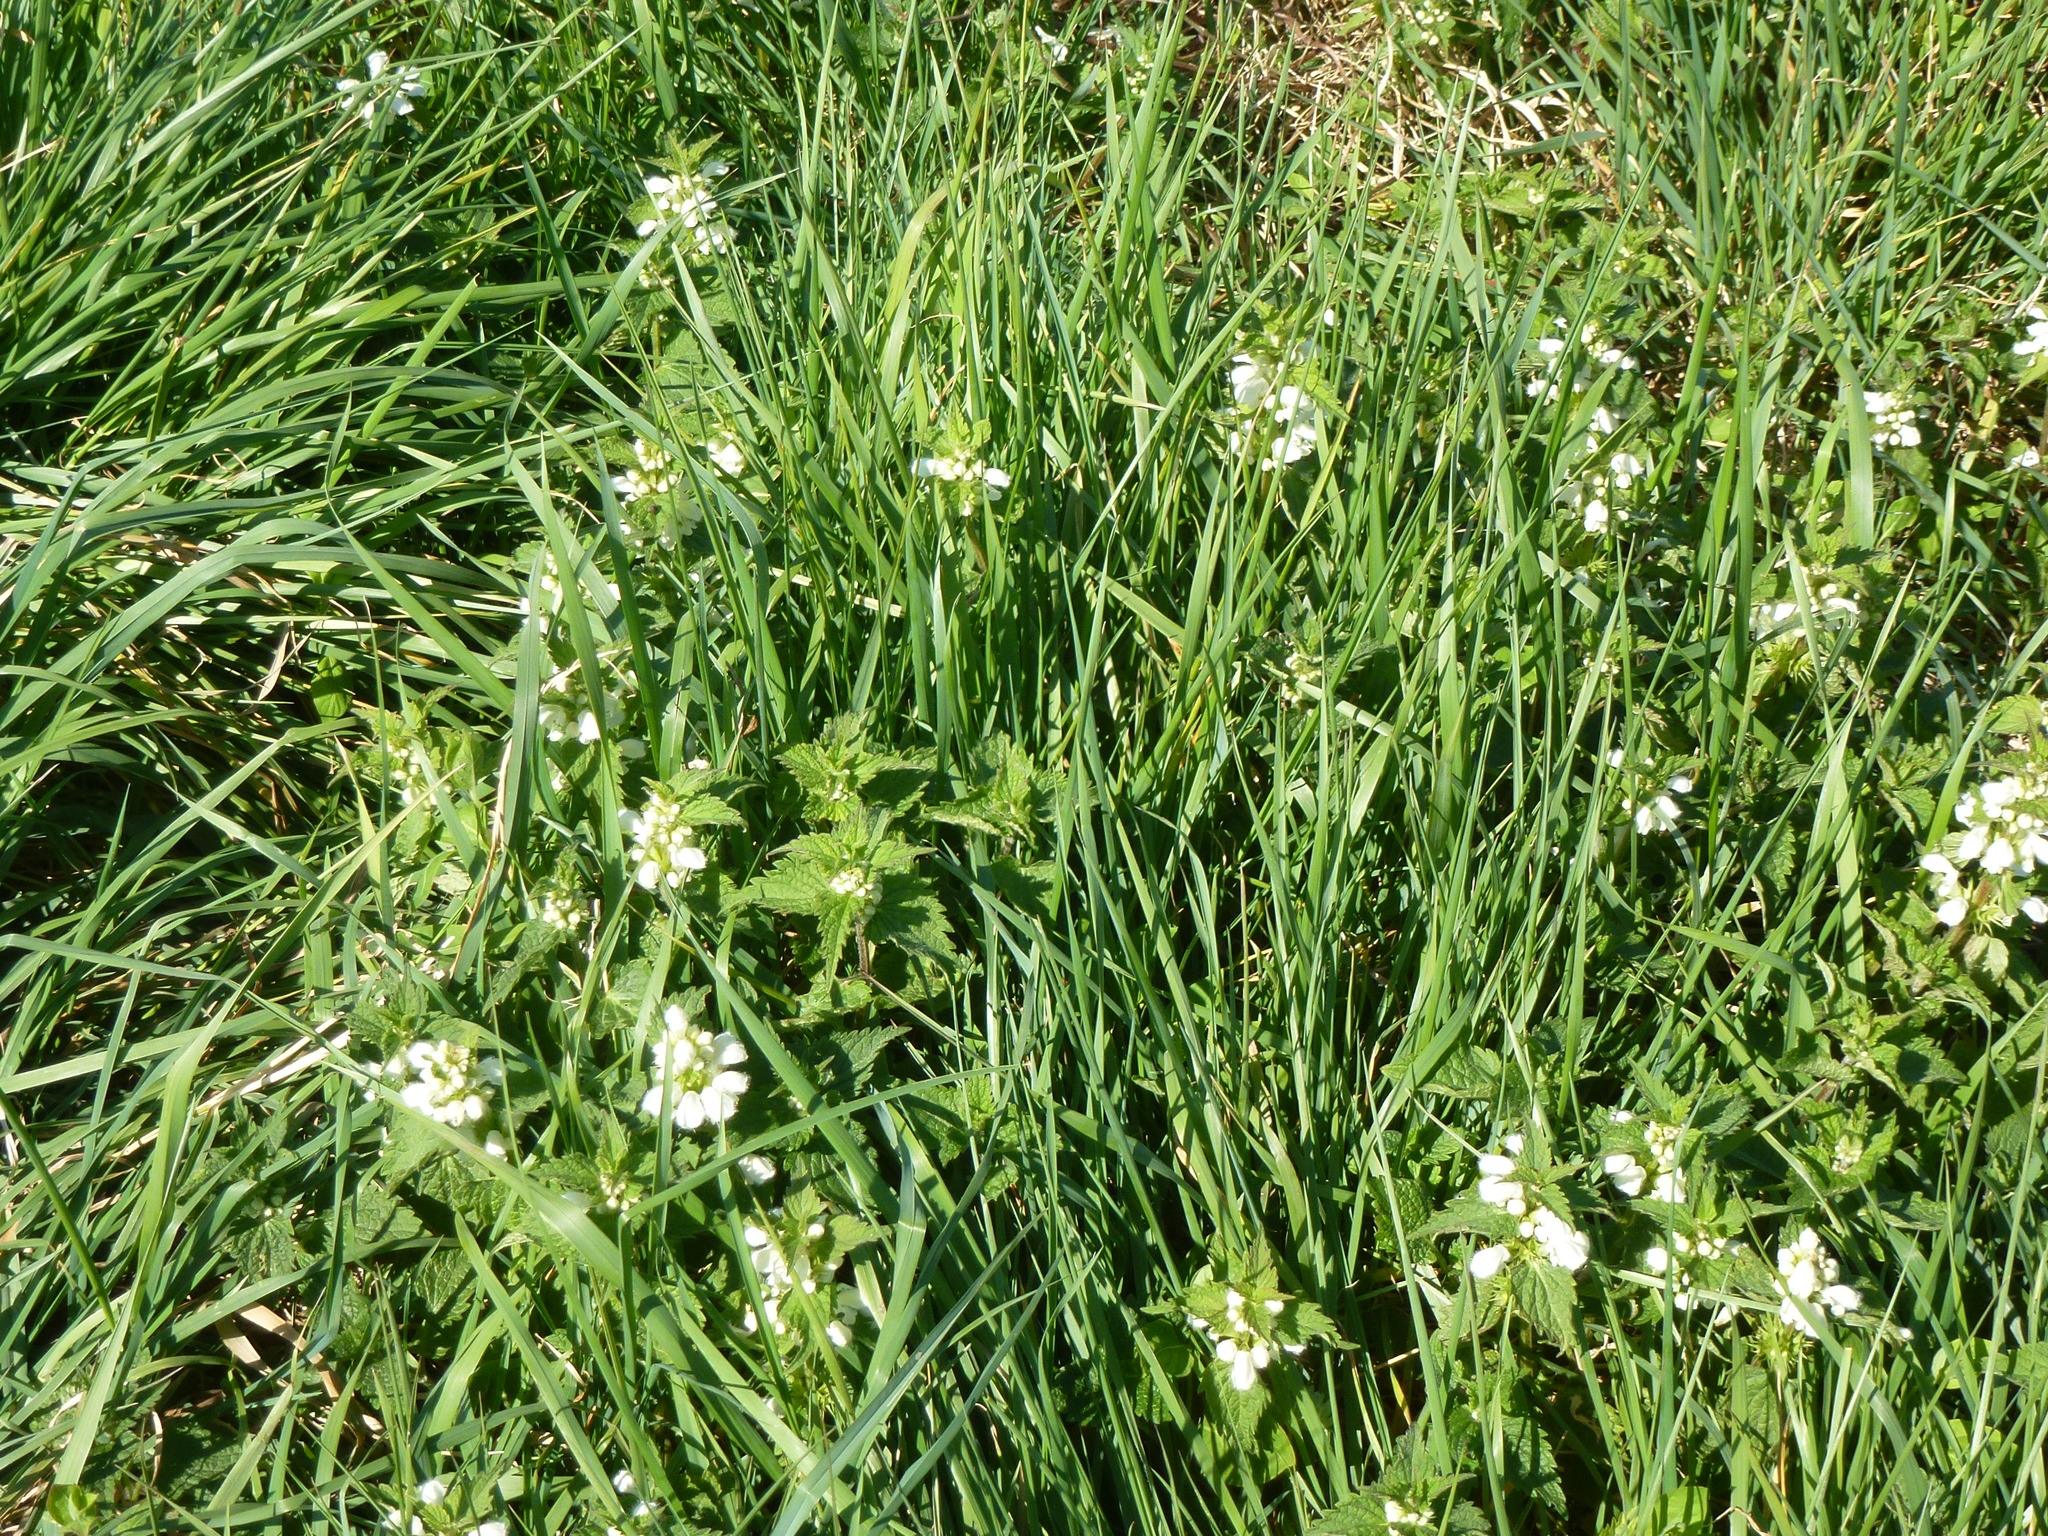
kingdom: Plantae
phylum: Tracheophyta
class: Magnoliopsida
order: Lamiales
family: Lamiaceae
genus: Lamium
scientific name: Lamium album
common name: White dead-nettle
